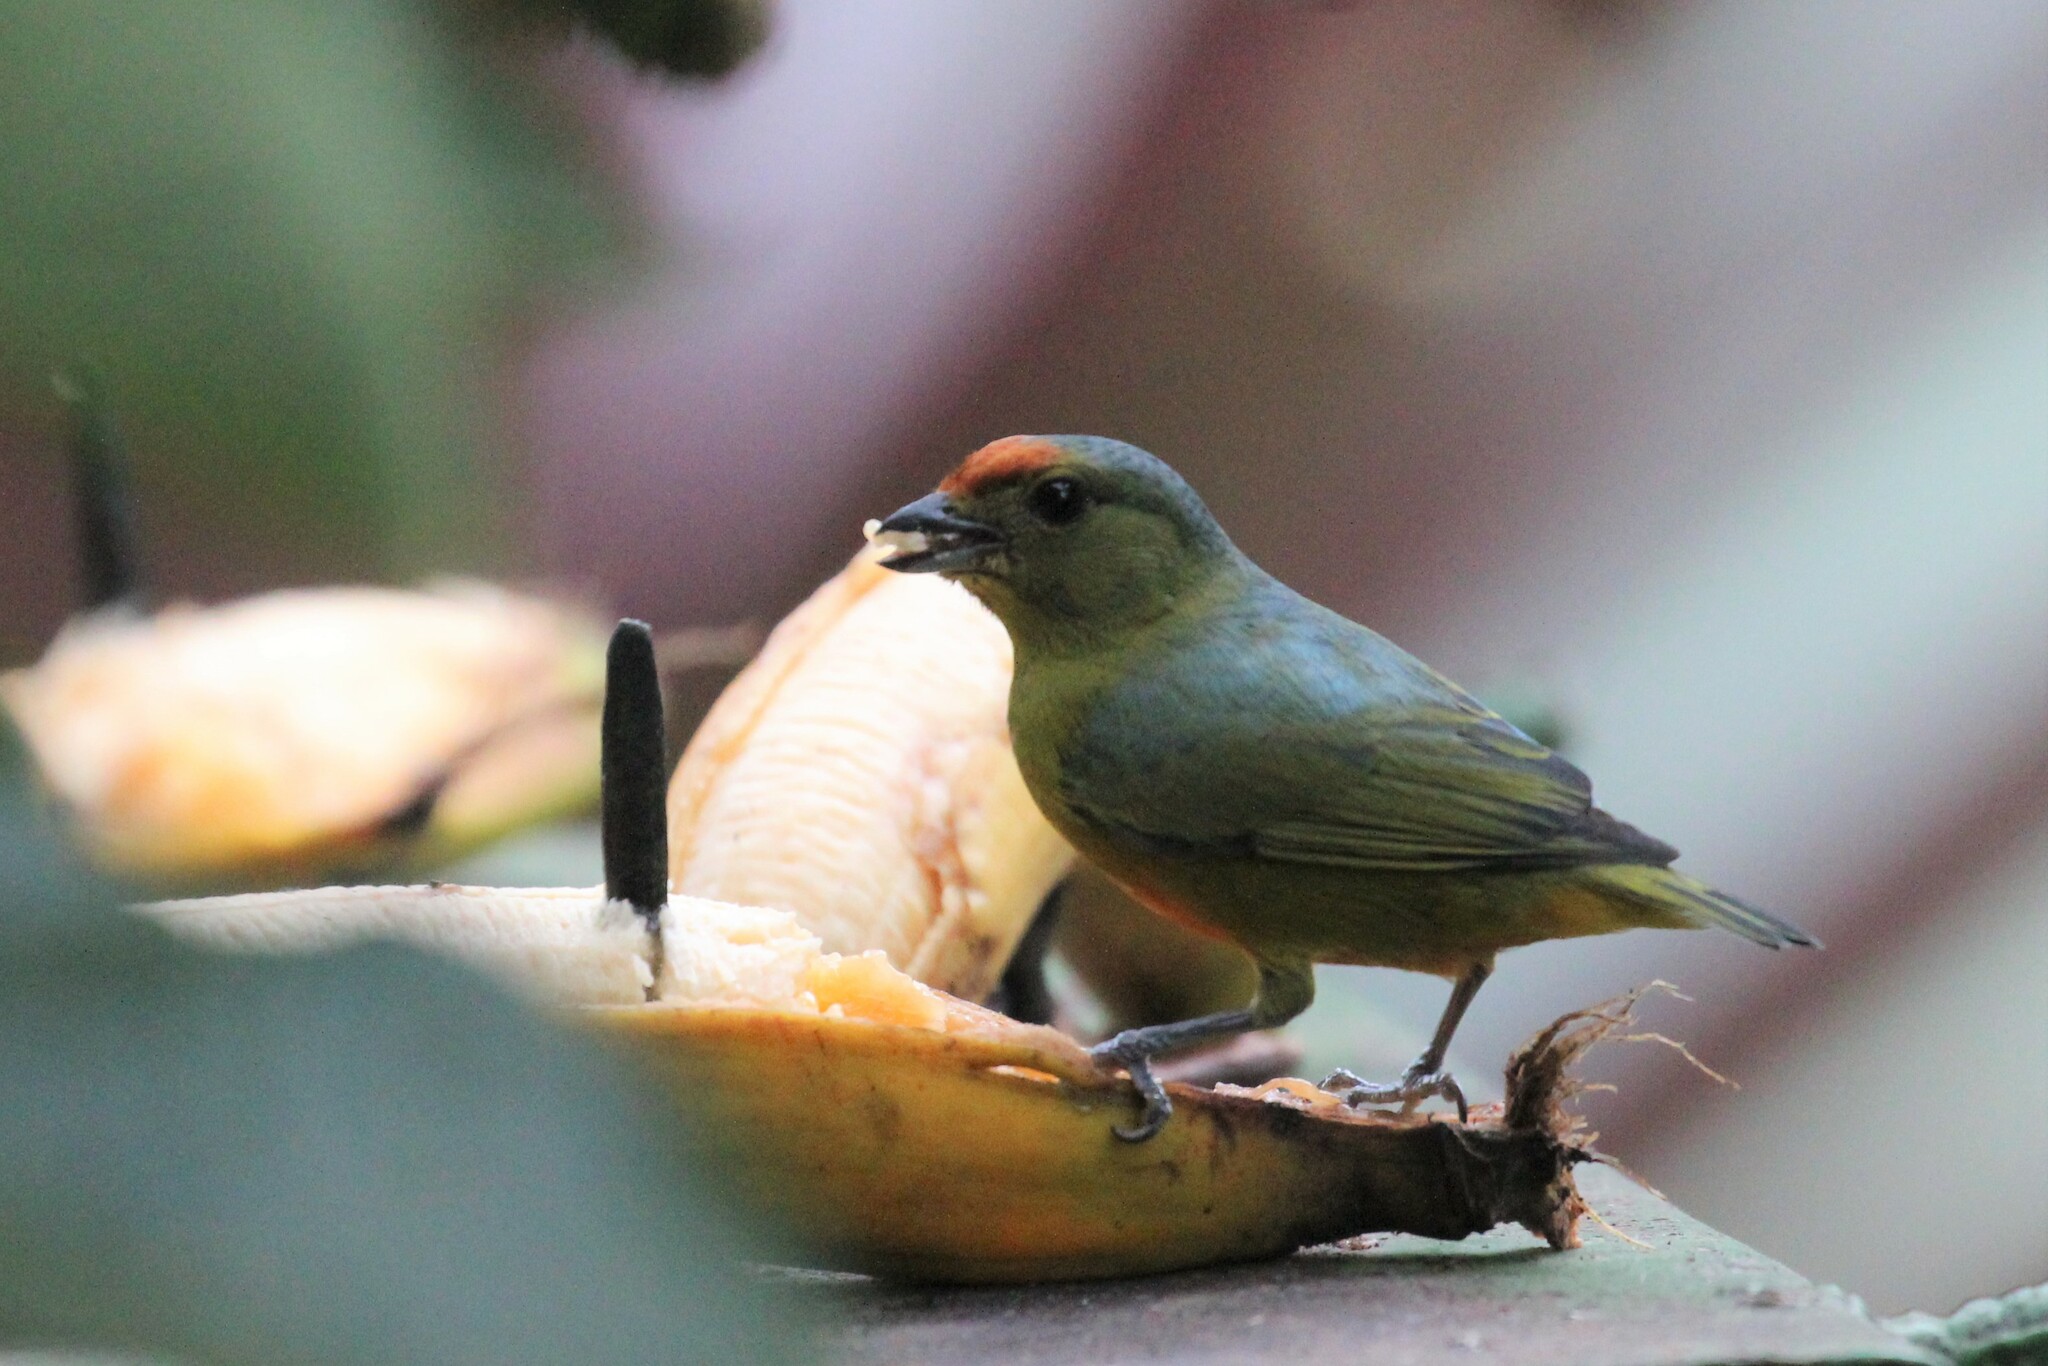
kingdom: Animalia
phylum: Chordata
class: Aves
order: Passeriformes
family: Fringillidae
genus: Euphonia
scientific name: Euphonia imitans
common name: Spot-crowned euphonia
